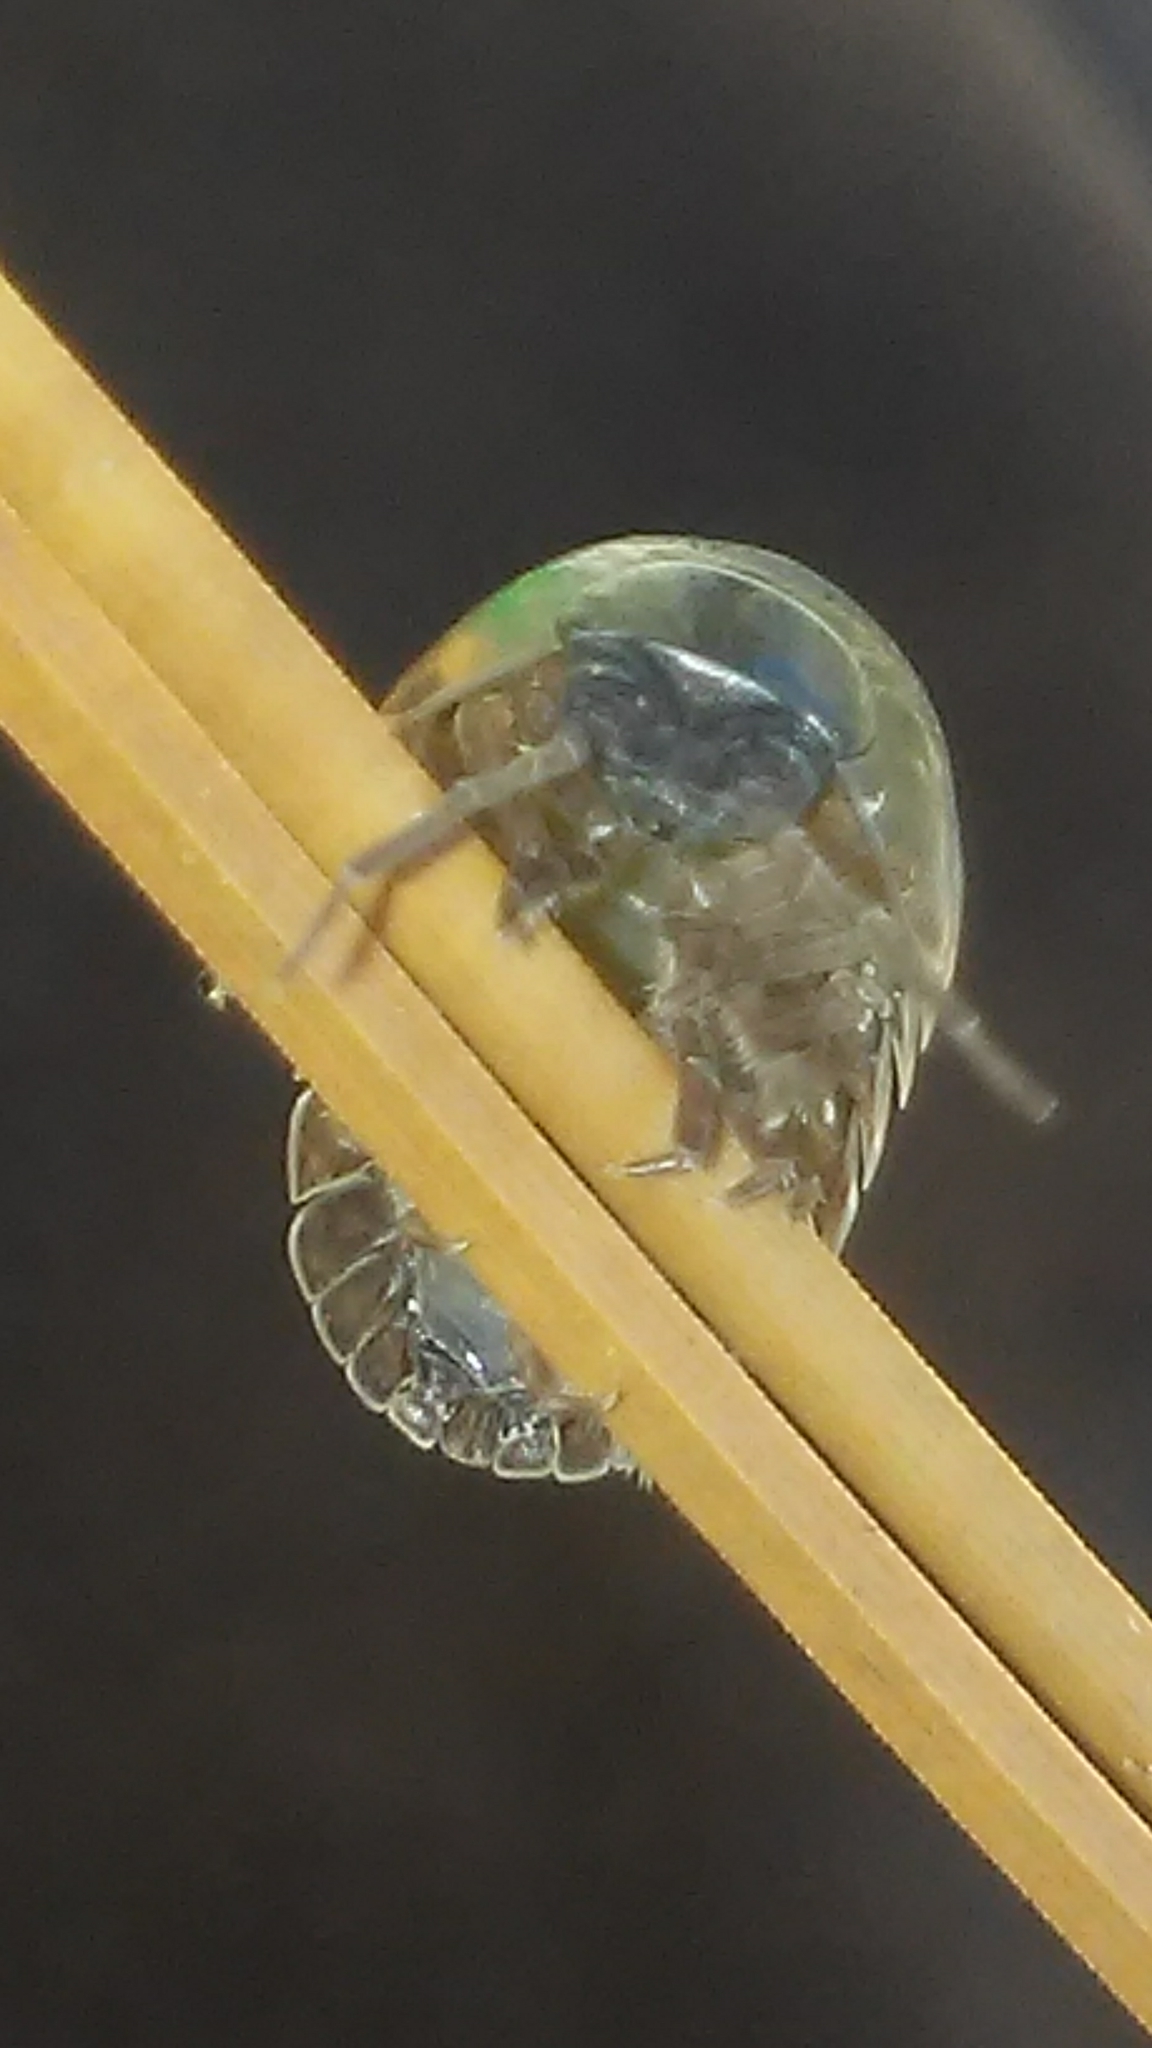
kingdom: Animalia
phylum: Arthropoda
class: Malacostraca
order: Isopoda
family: Armadillidiidae
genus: Armadillidium
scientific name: Armadillidium vulgare
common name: Common pill woodlouse
